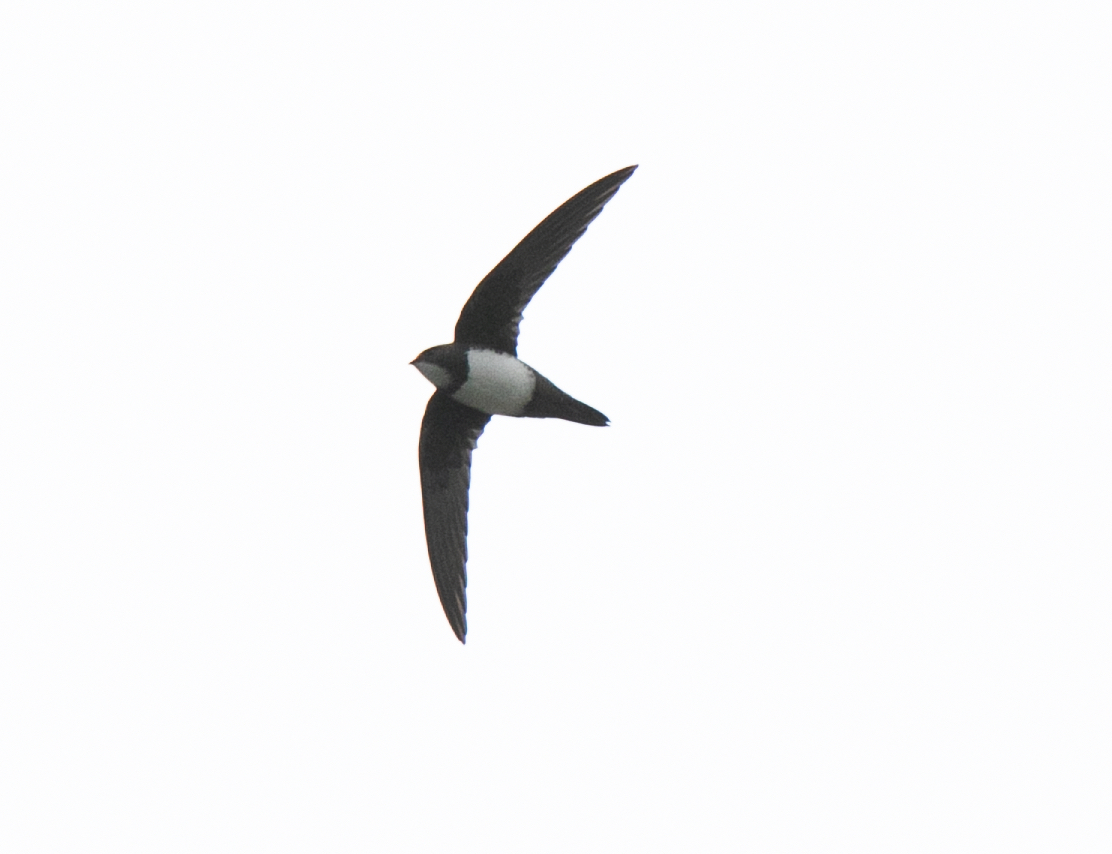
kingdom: Animalia
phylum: Chordata
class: Aves
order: Apodiformes
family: Apodidae
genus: Tachymarptis
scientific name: Tachymarptis melba
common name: Alpine swift
